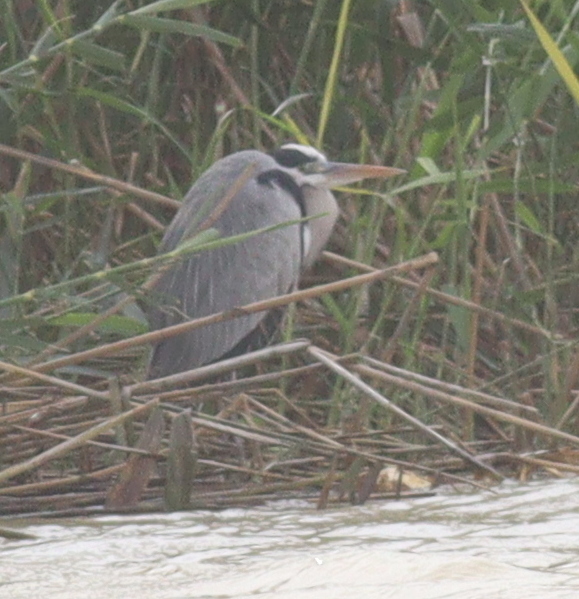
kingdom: Animalia
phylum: Chordata
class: Aves
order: Pelecaniformes
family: Ardeidae
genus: Ardea
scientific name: Ardea cinerea
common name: Grey heron
